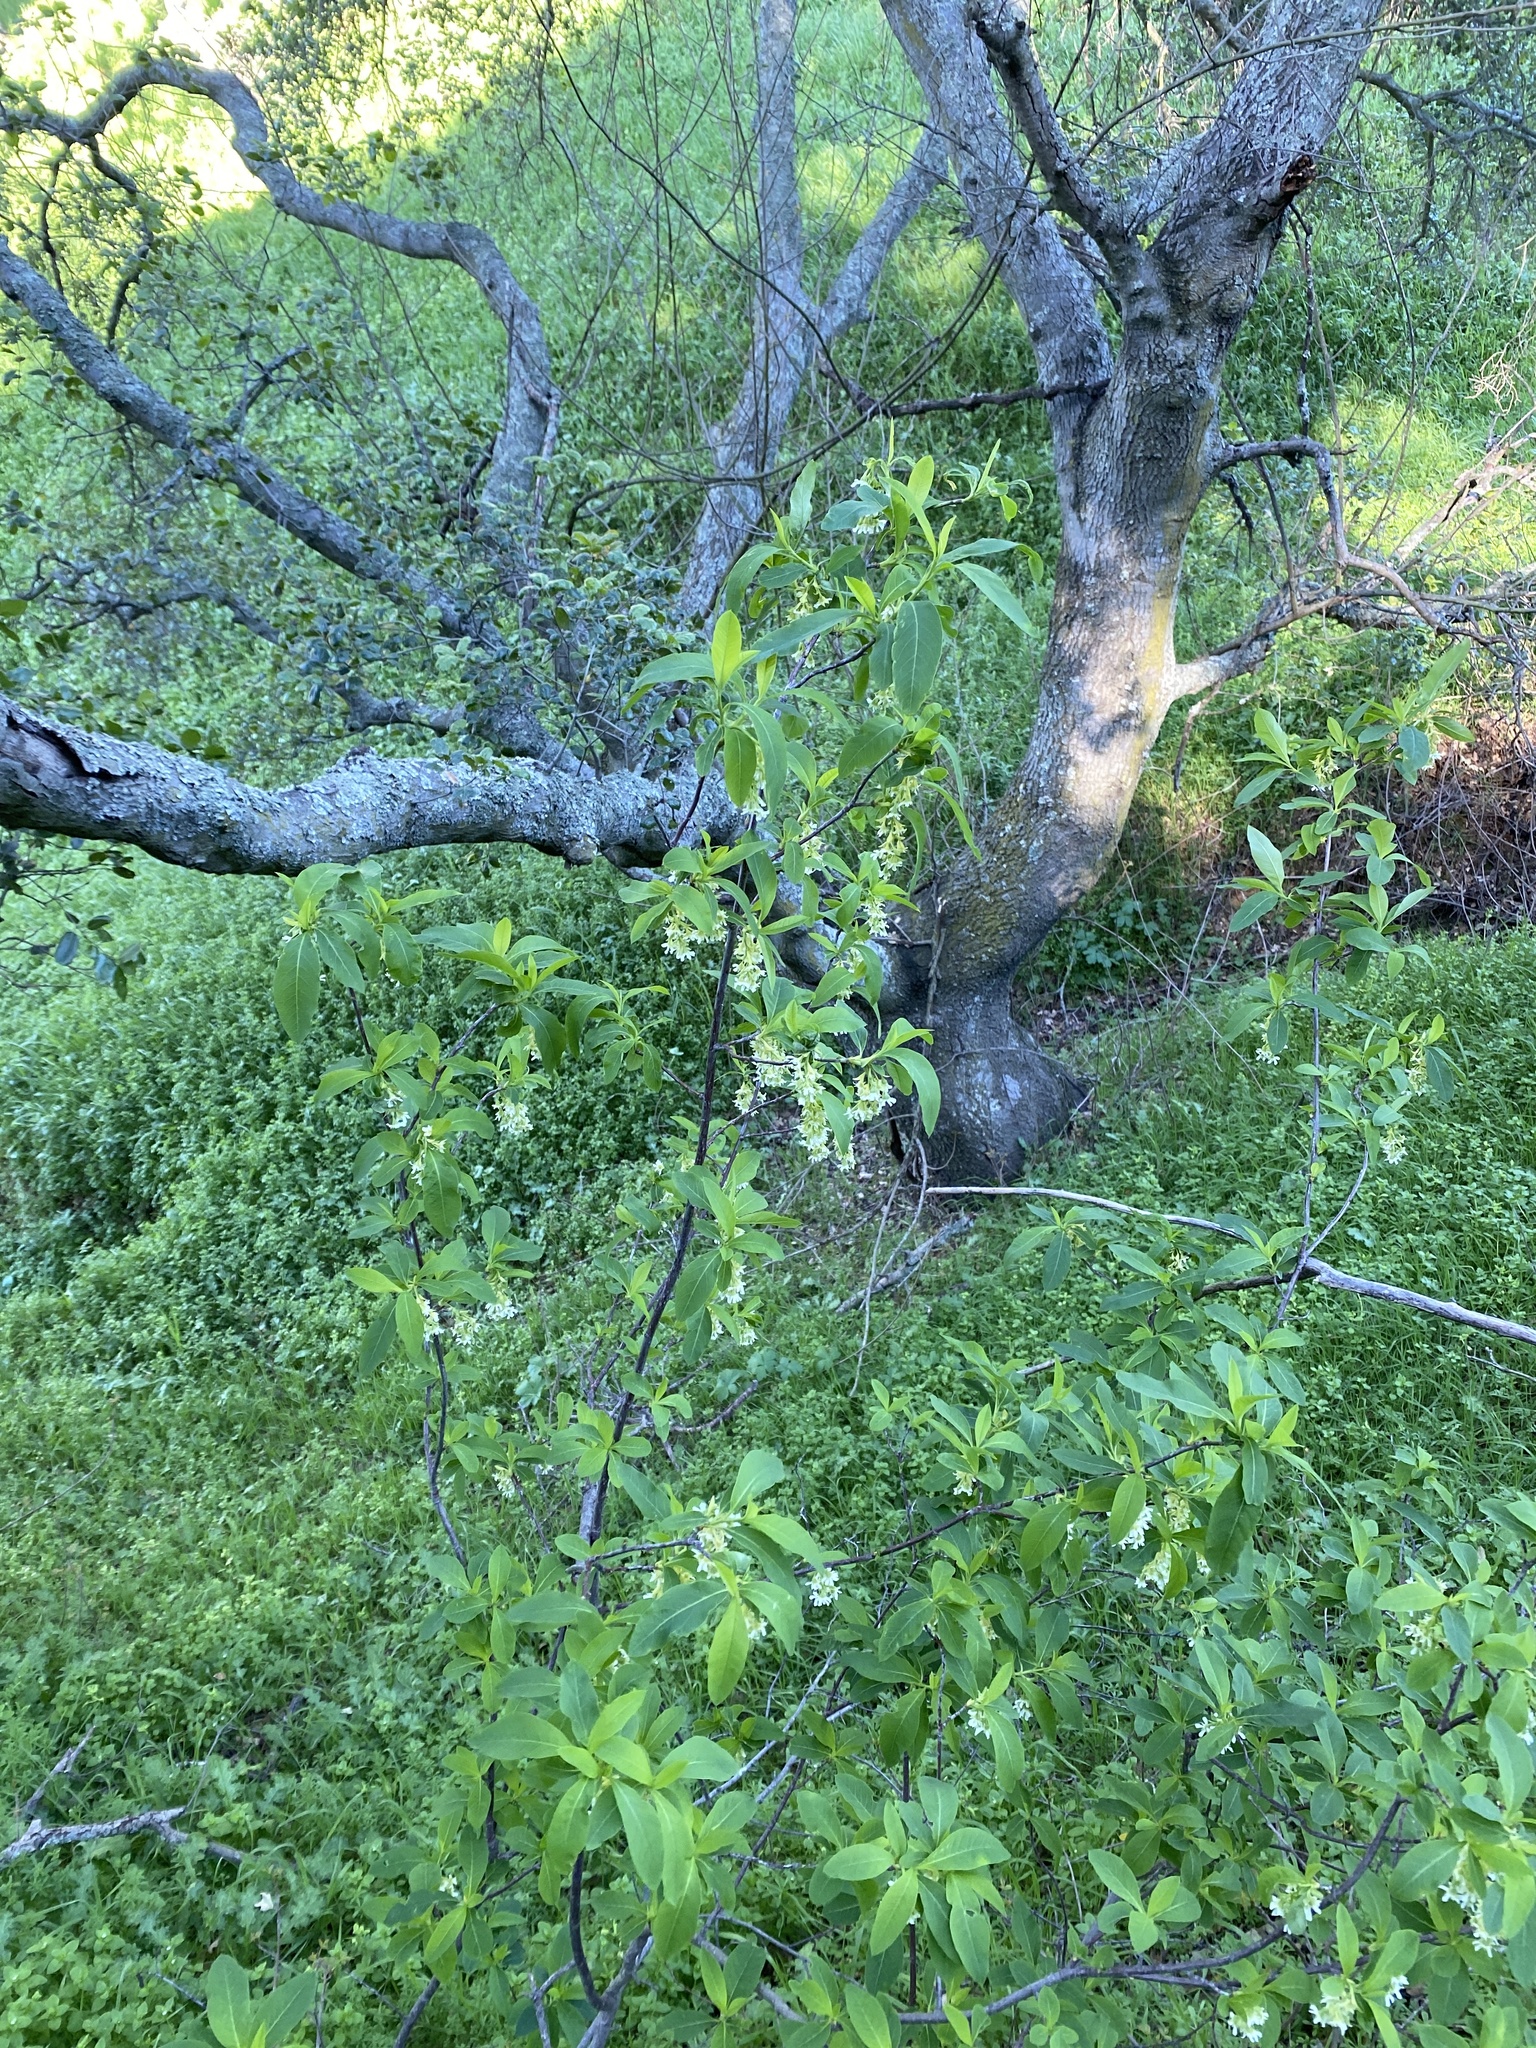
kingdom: Plantae
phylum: Tracheophyta
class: Magnoliopsida
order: Rosales
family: Rosaceae
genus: Oemleria
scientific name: Oemleria cerasiformis
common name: Osoberry
